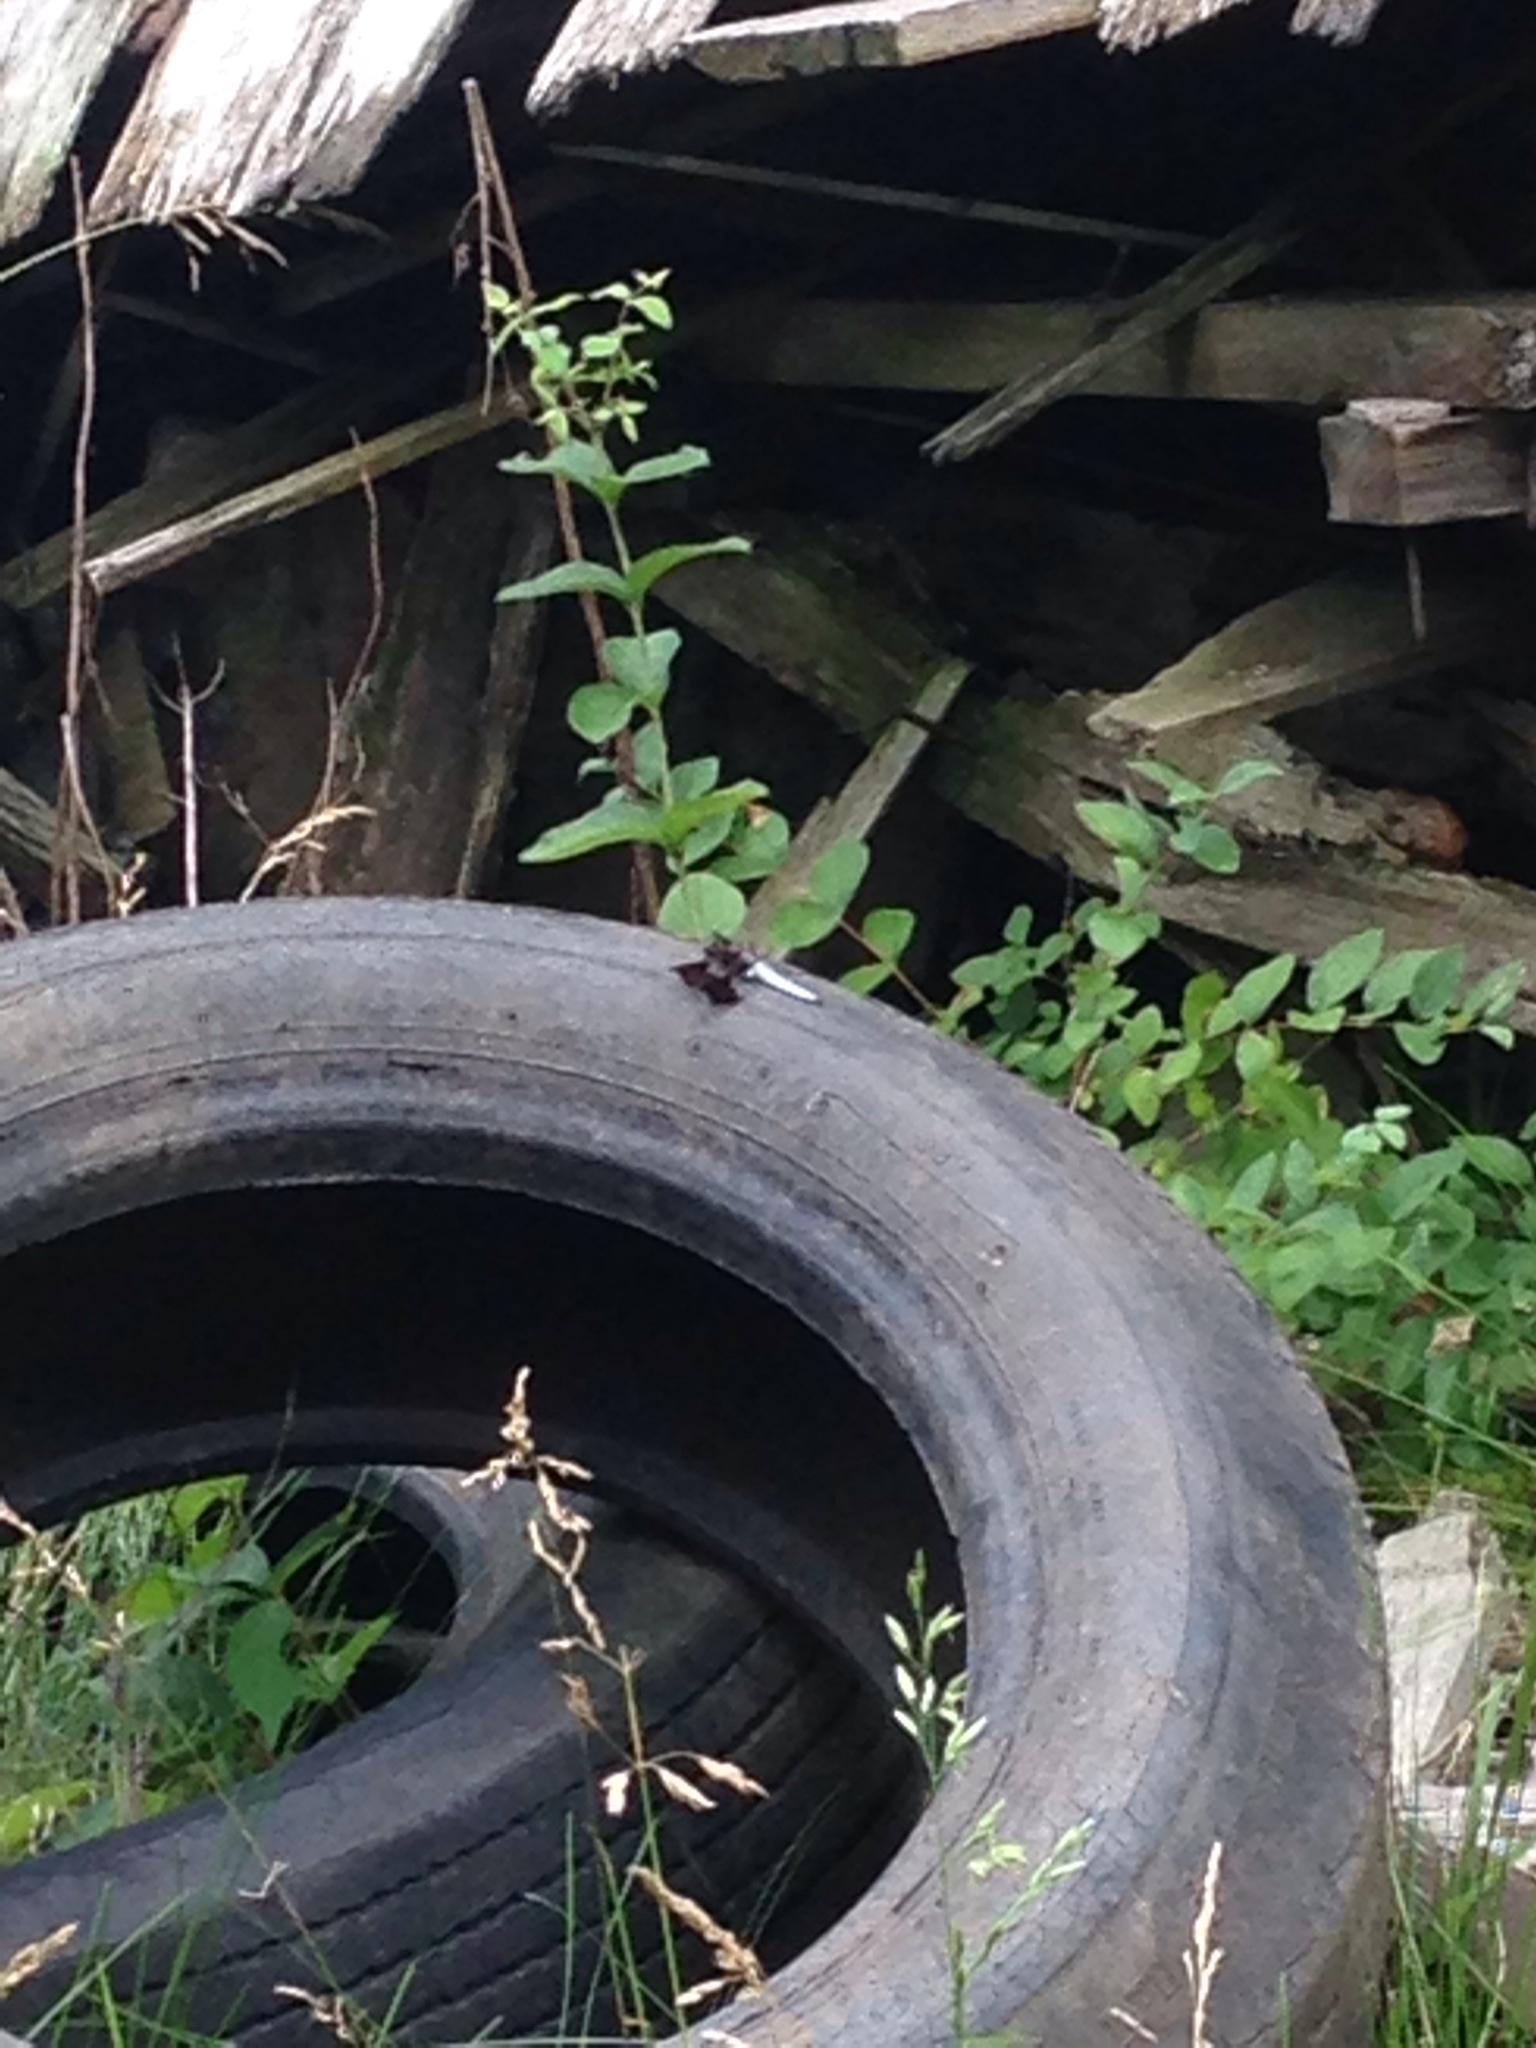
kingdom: Animalia
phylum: Arthropoda
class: Insecta
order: Odonata
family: Libellulidae
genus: Plathemis
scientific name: Plathemis lydia
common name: Common whitetail
